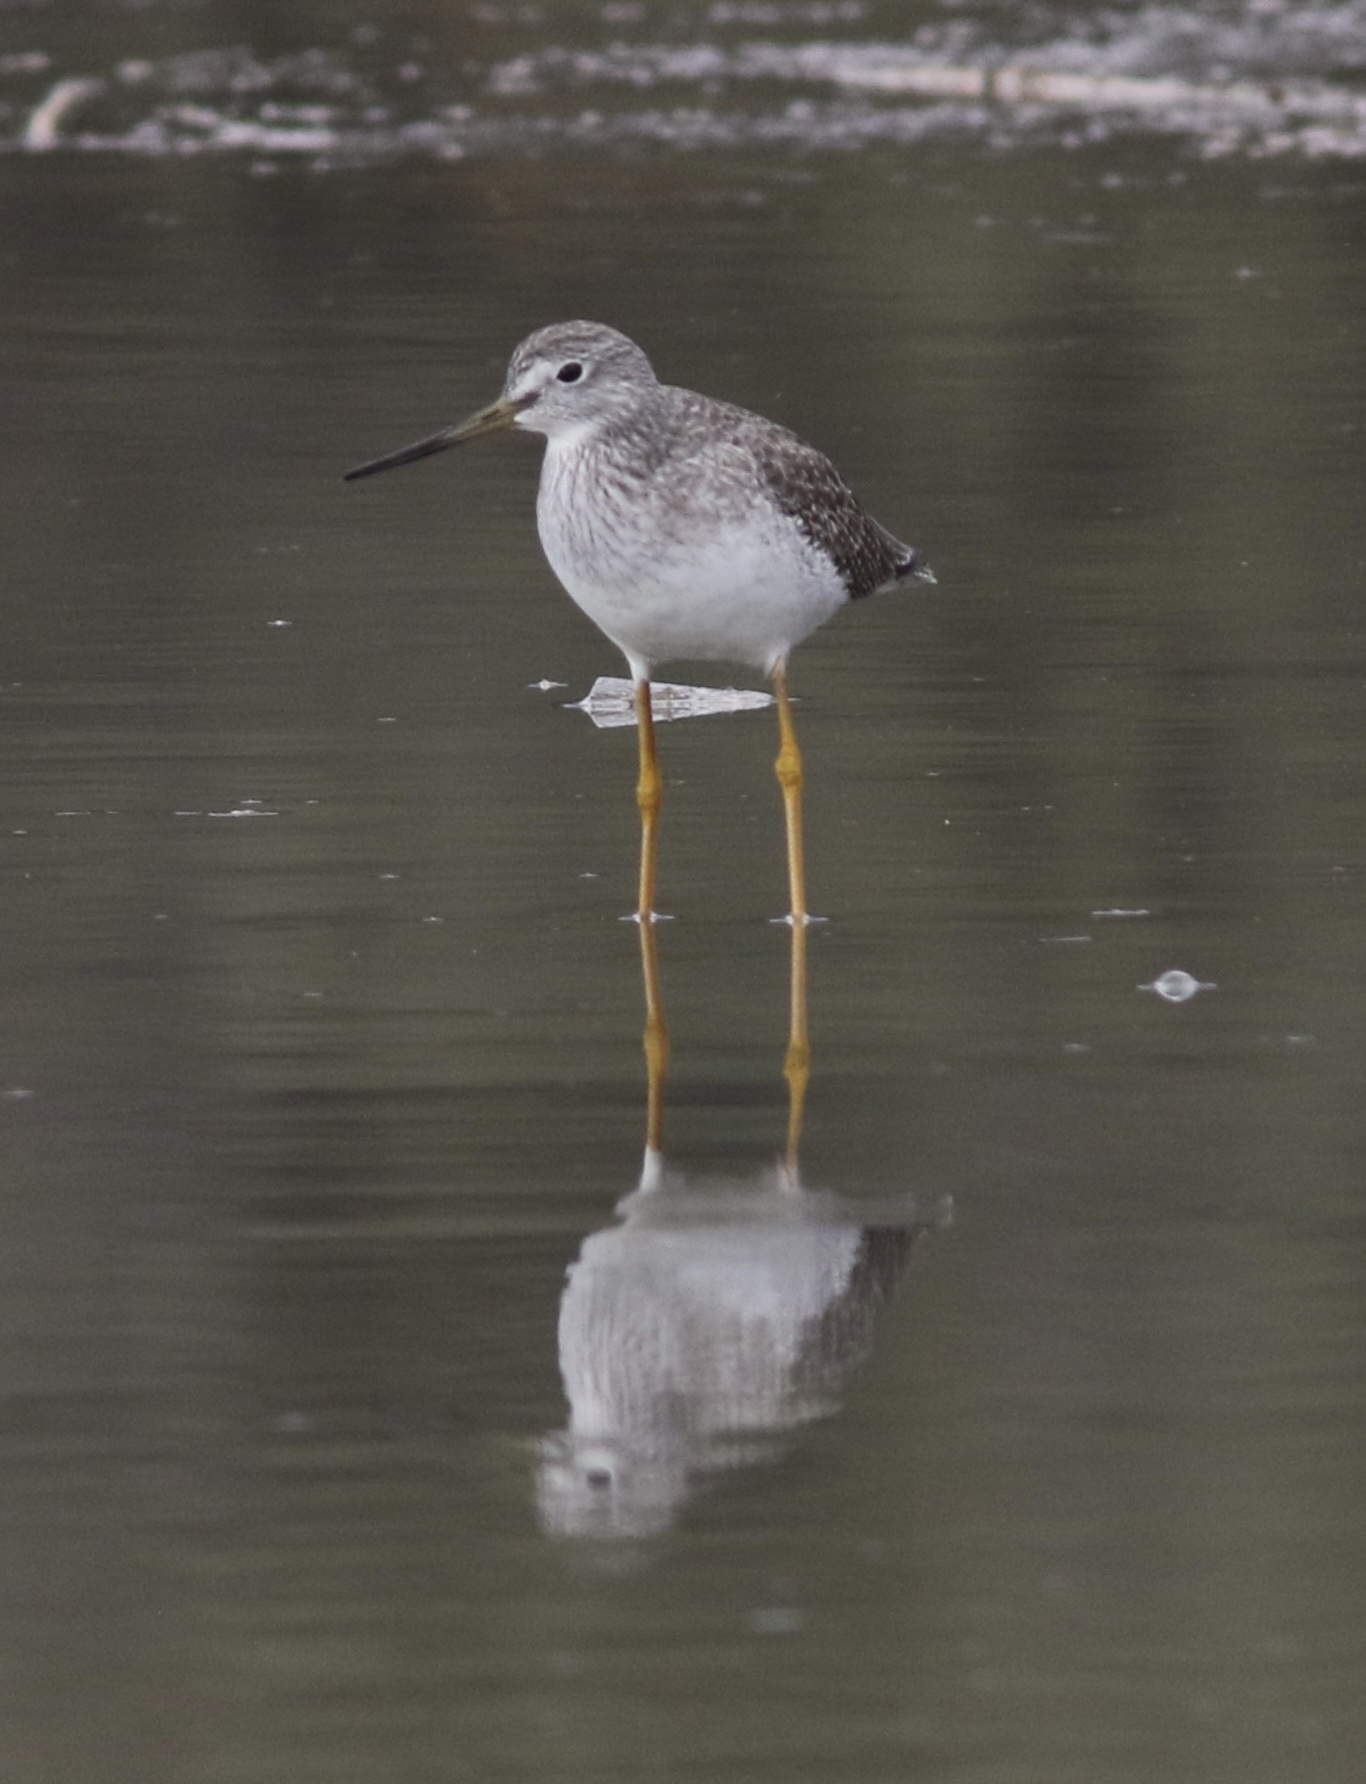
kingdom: Animalia
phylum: Chordata
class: Aves
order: Charadriiformes
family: Scolopacidae
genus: Tringa
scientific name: Tringa melanoleuca
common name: Greater yellowlegs
